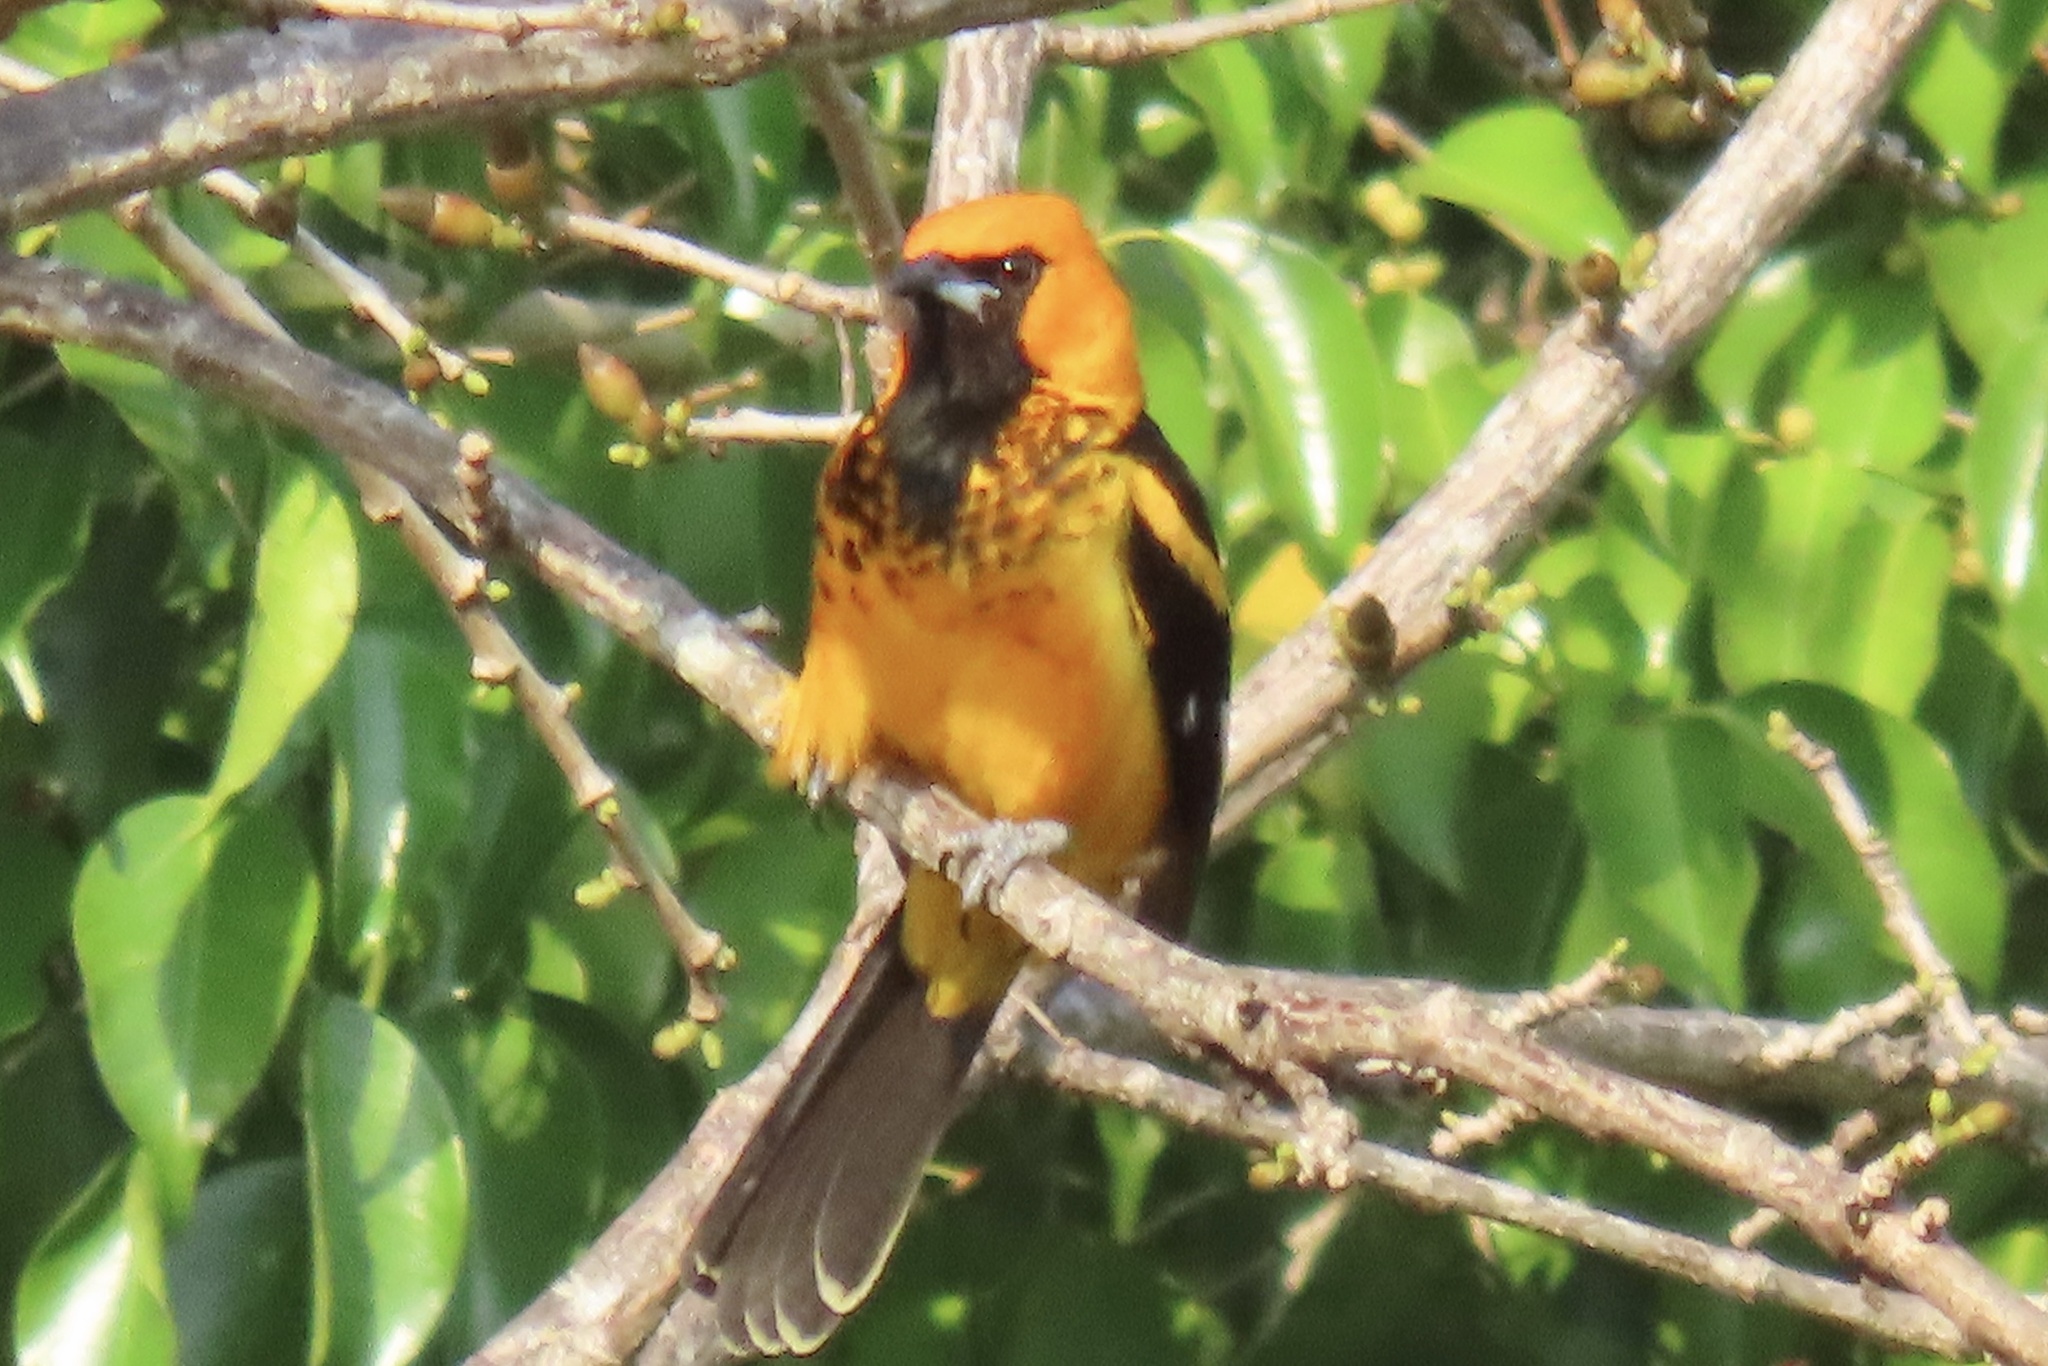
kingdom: Animalia
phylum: Chordata
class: Aves
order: Passeriformes
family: Icteridae
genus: Icterus
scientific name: Icterus pectoralis
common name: Spot-breasted oriole
